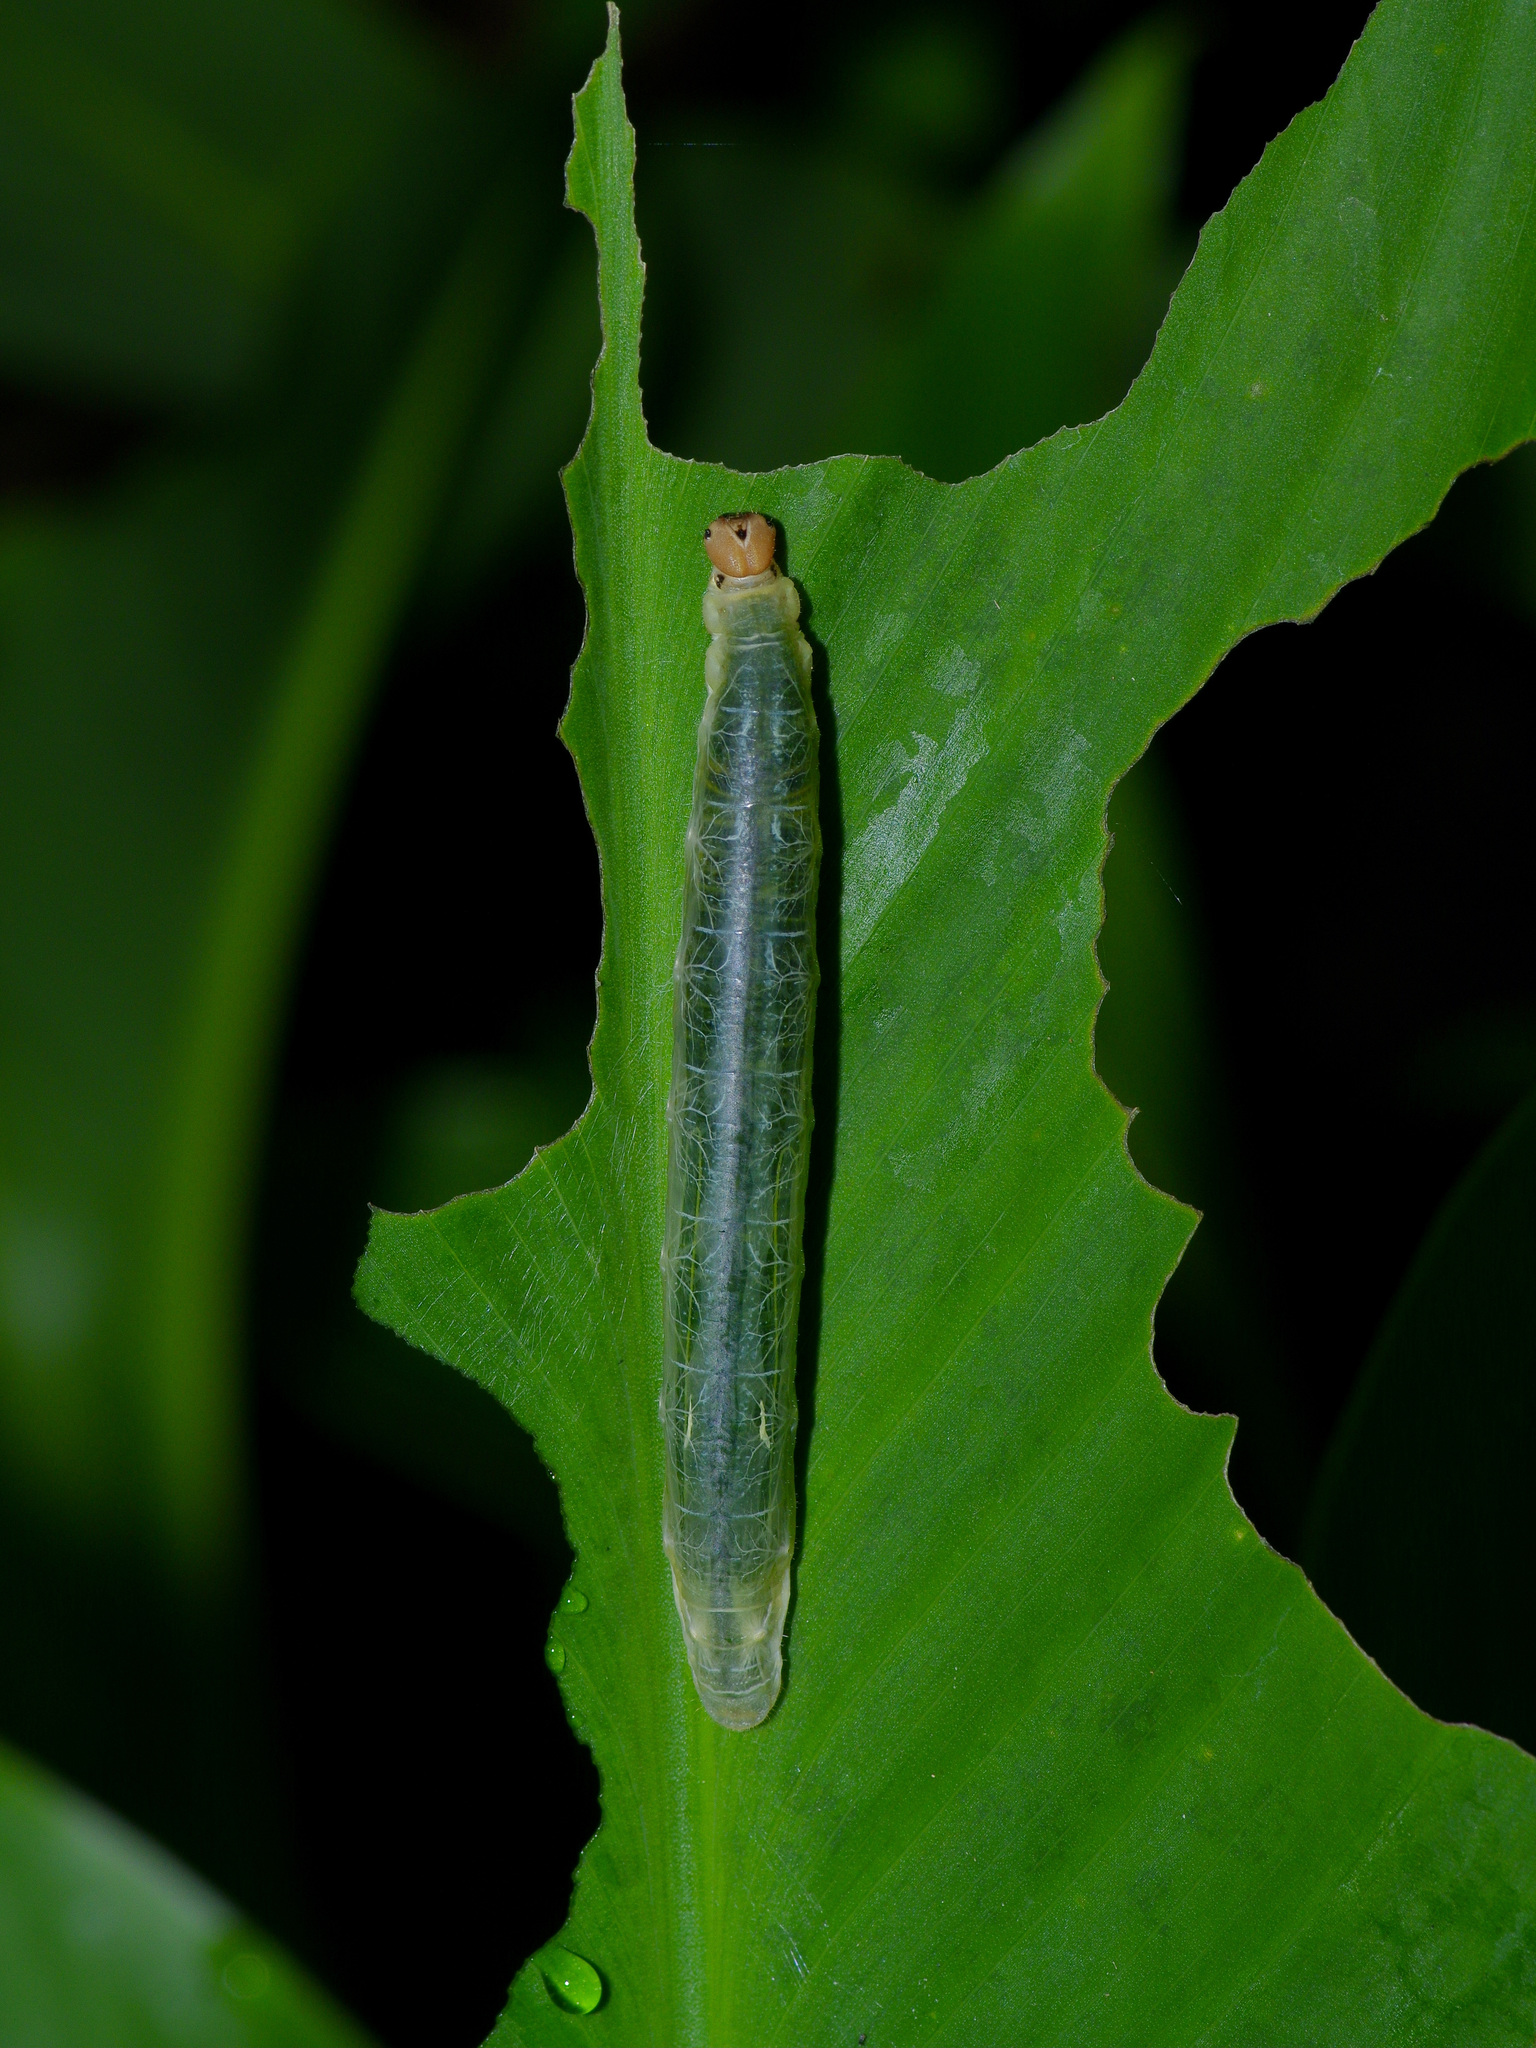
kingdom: Animalia
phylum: Arthropoda
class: Insecta
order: Lepidoptera
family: Hesperiidae
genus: Calpodes
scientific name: Calpodes ethlius
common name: Brazilian skipper
